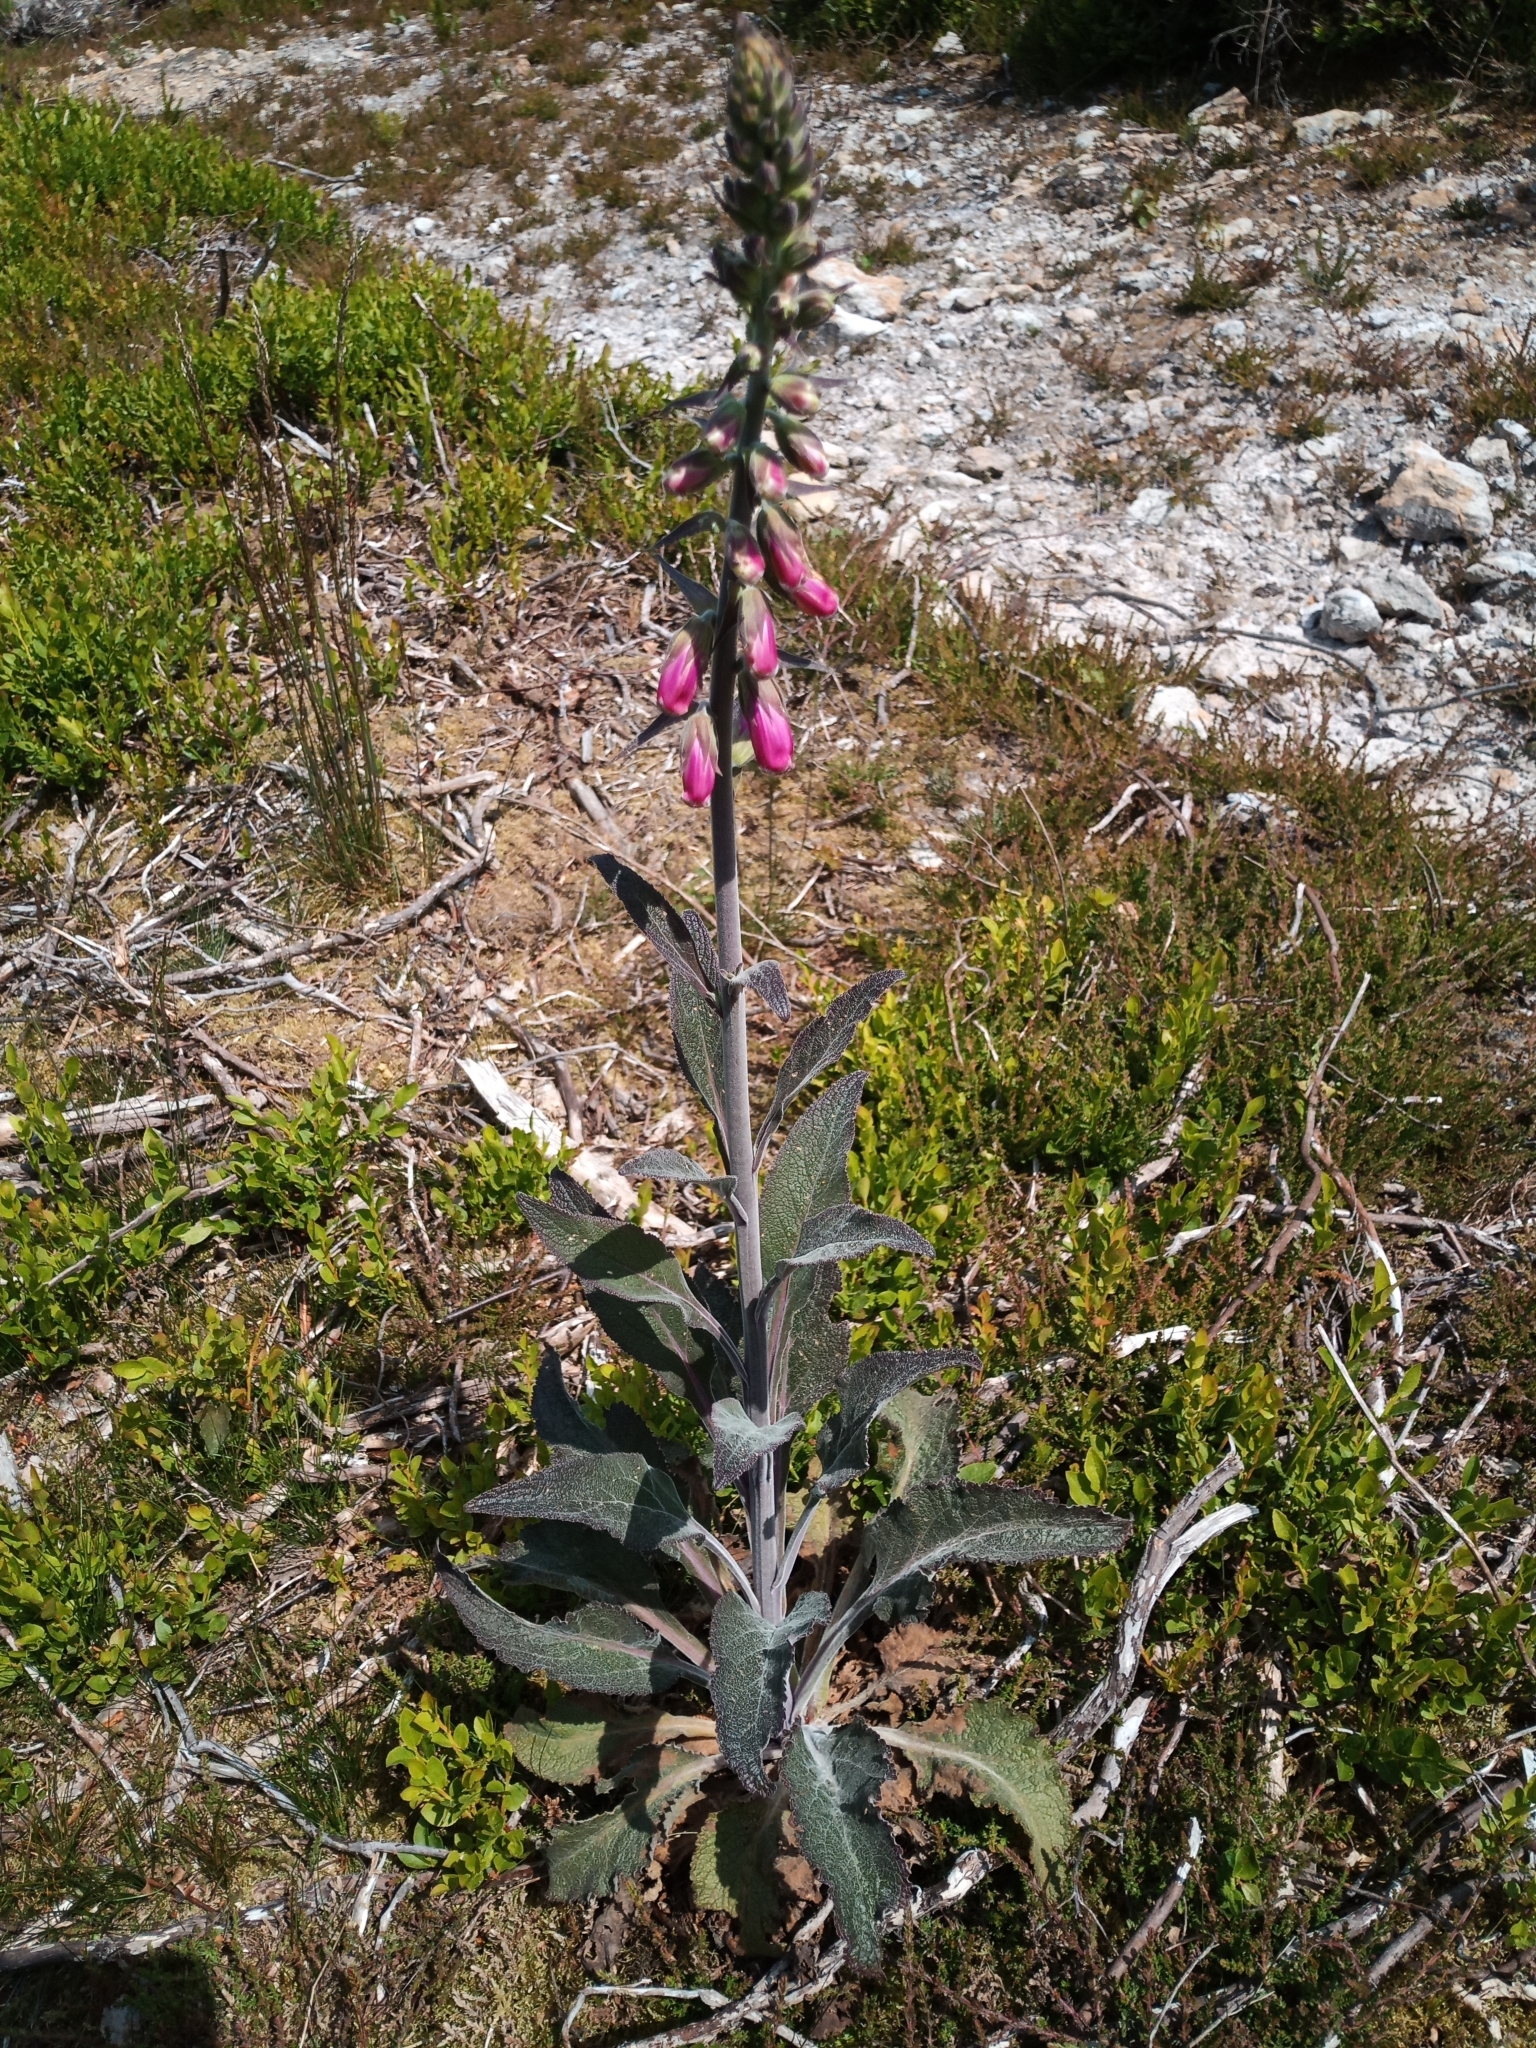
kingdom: Plantae
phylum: Tracheophyta
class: Magnoliopsida
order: Lamiales
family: Plantaginaceae
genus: Digitalis
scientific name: Digitalis purpurea
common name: Foxglove
